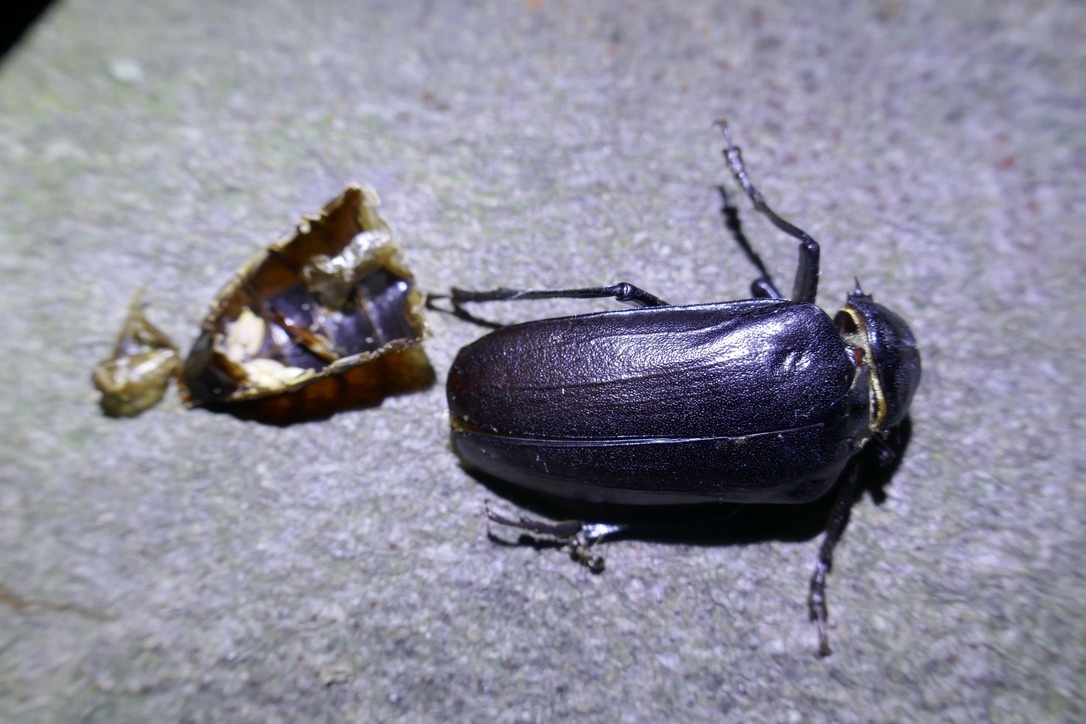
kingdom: Animalia
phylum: Arthropoda
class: Insecta
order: Coleoptera
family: Cerambycidae
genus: Prionus
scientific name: Prionus coriarius
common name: Tanner beetle
